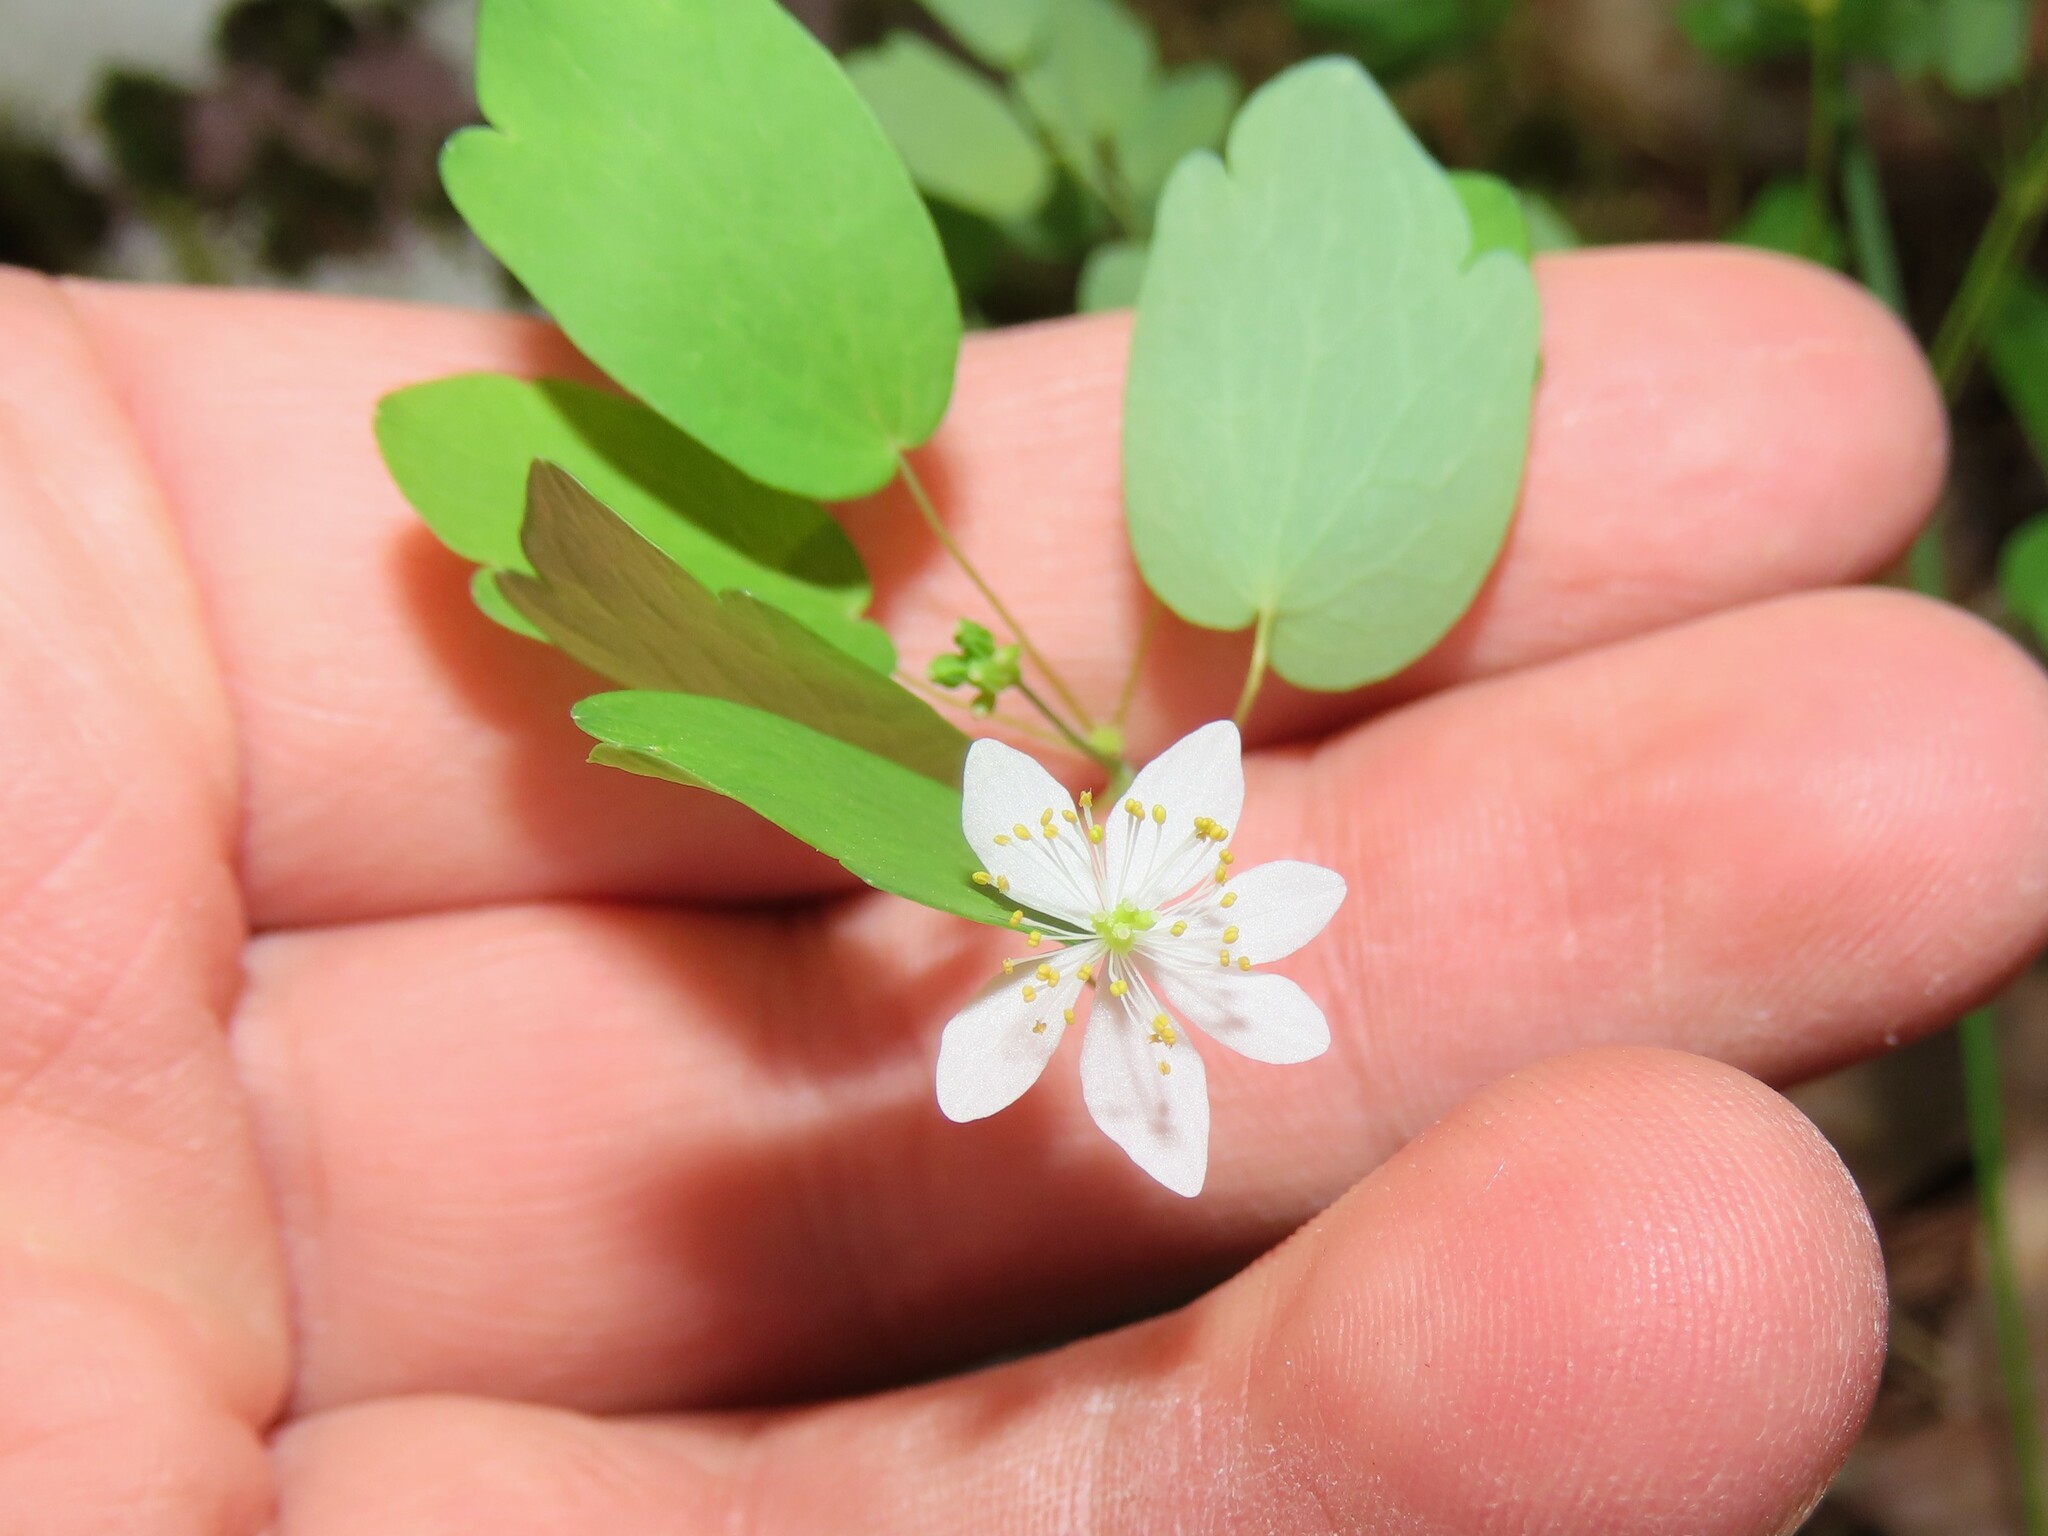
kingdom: Plantae
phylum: Tracheophyta
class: Magnoliopsida
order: Ranunculales
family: Ranunculaceae
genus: Thalictrum
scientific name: Thalictrum thalictroides
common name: Rue-anemone
